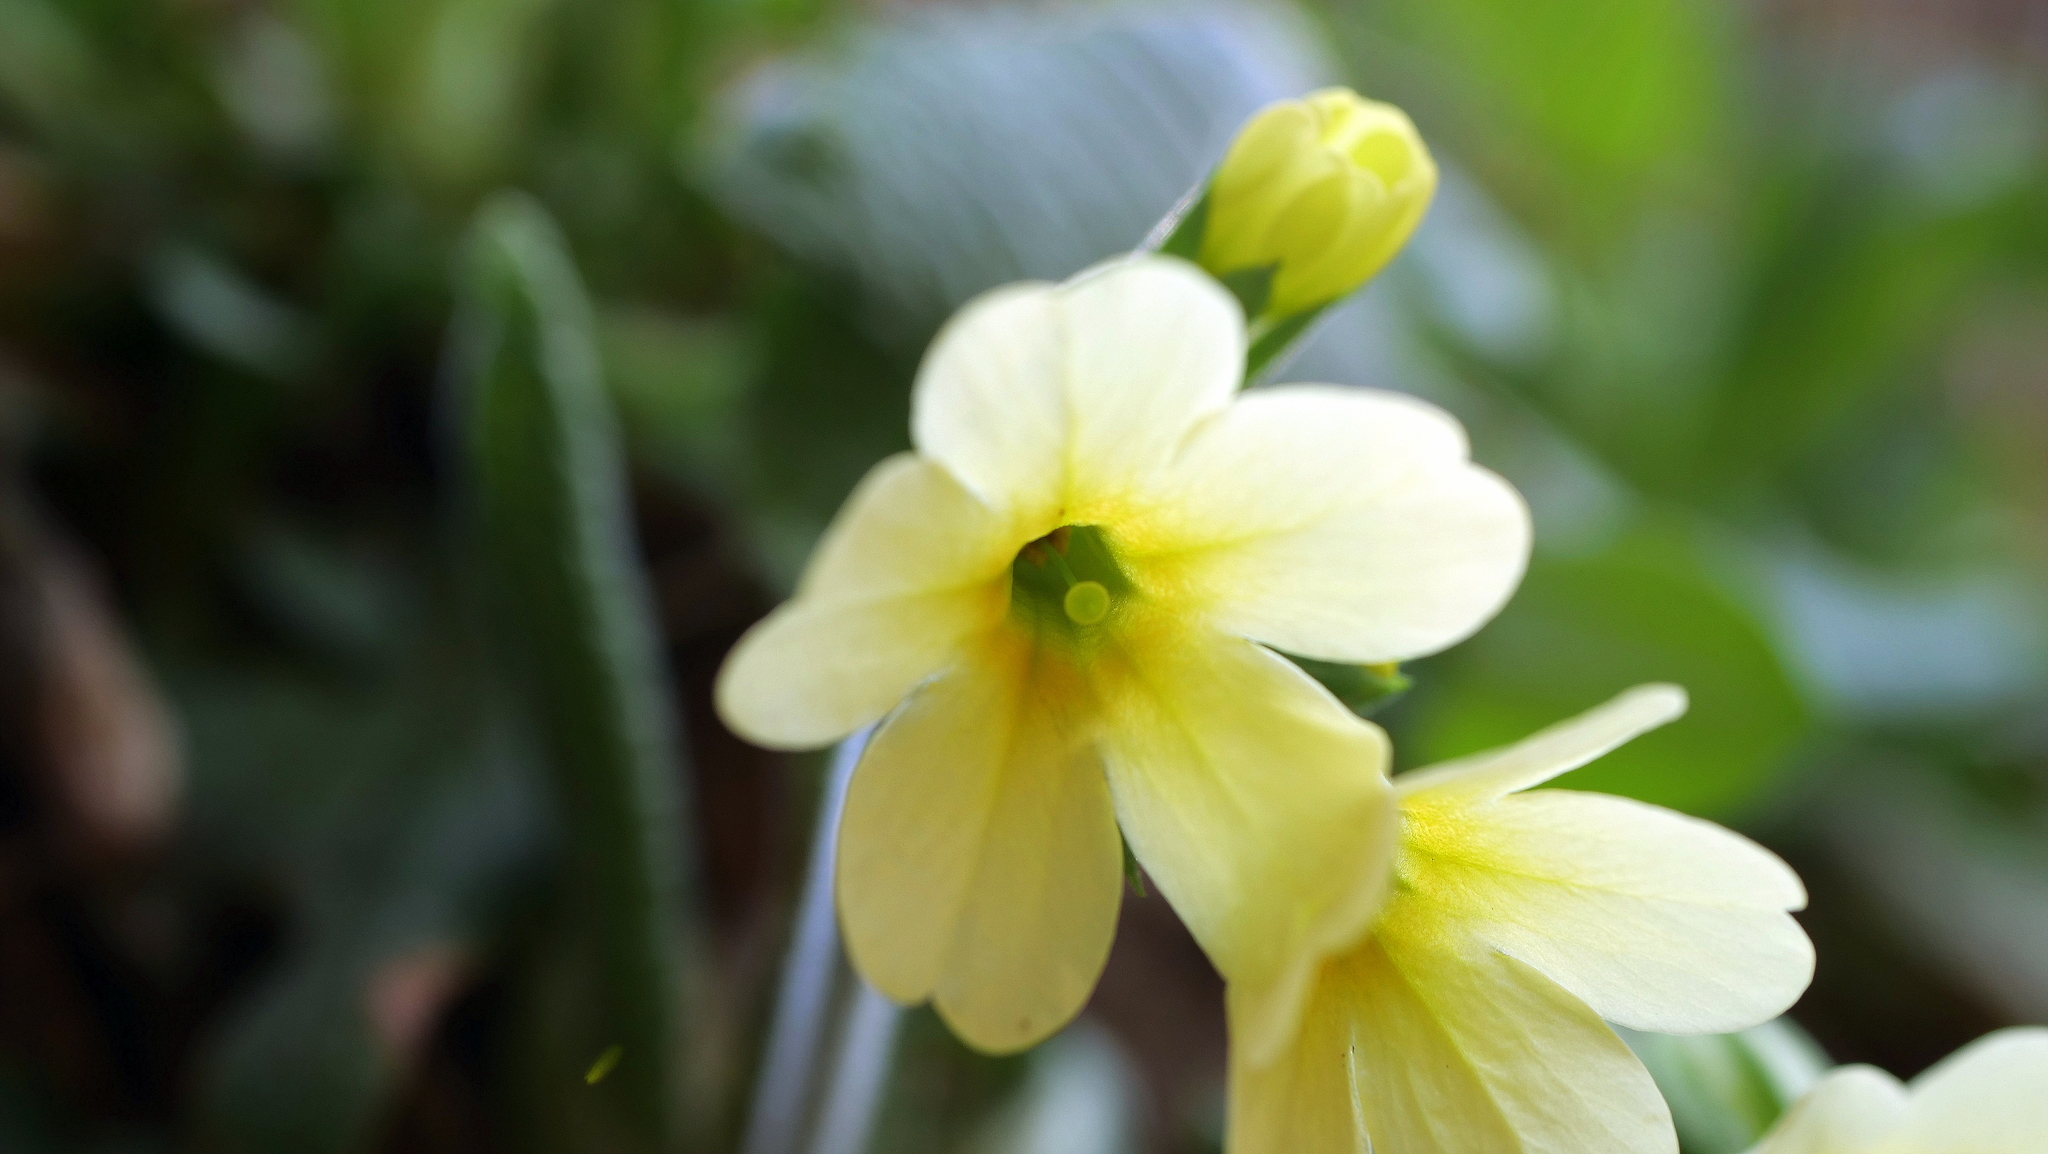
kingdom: Plantae
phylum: Tracheophyta
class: Magnoliopsida
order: Ericales
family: Primulaceae
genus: Primula
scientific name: Primula elatior
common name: Oxlip
